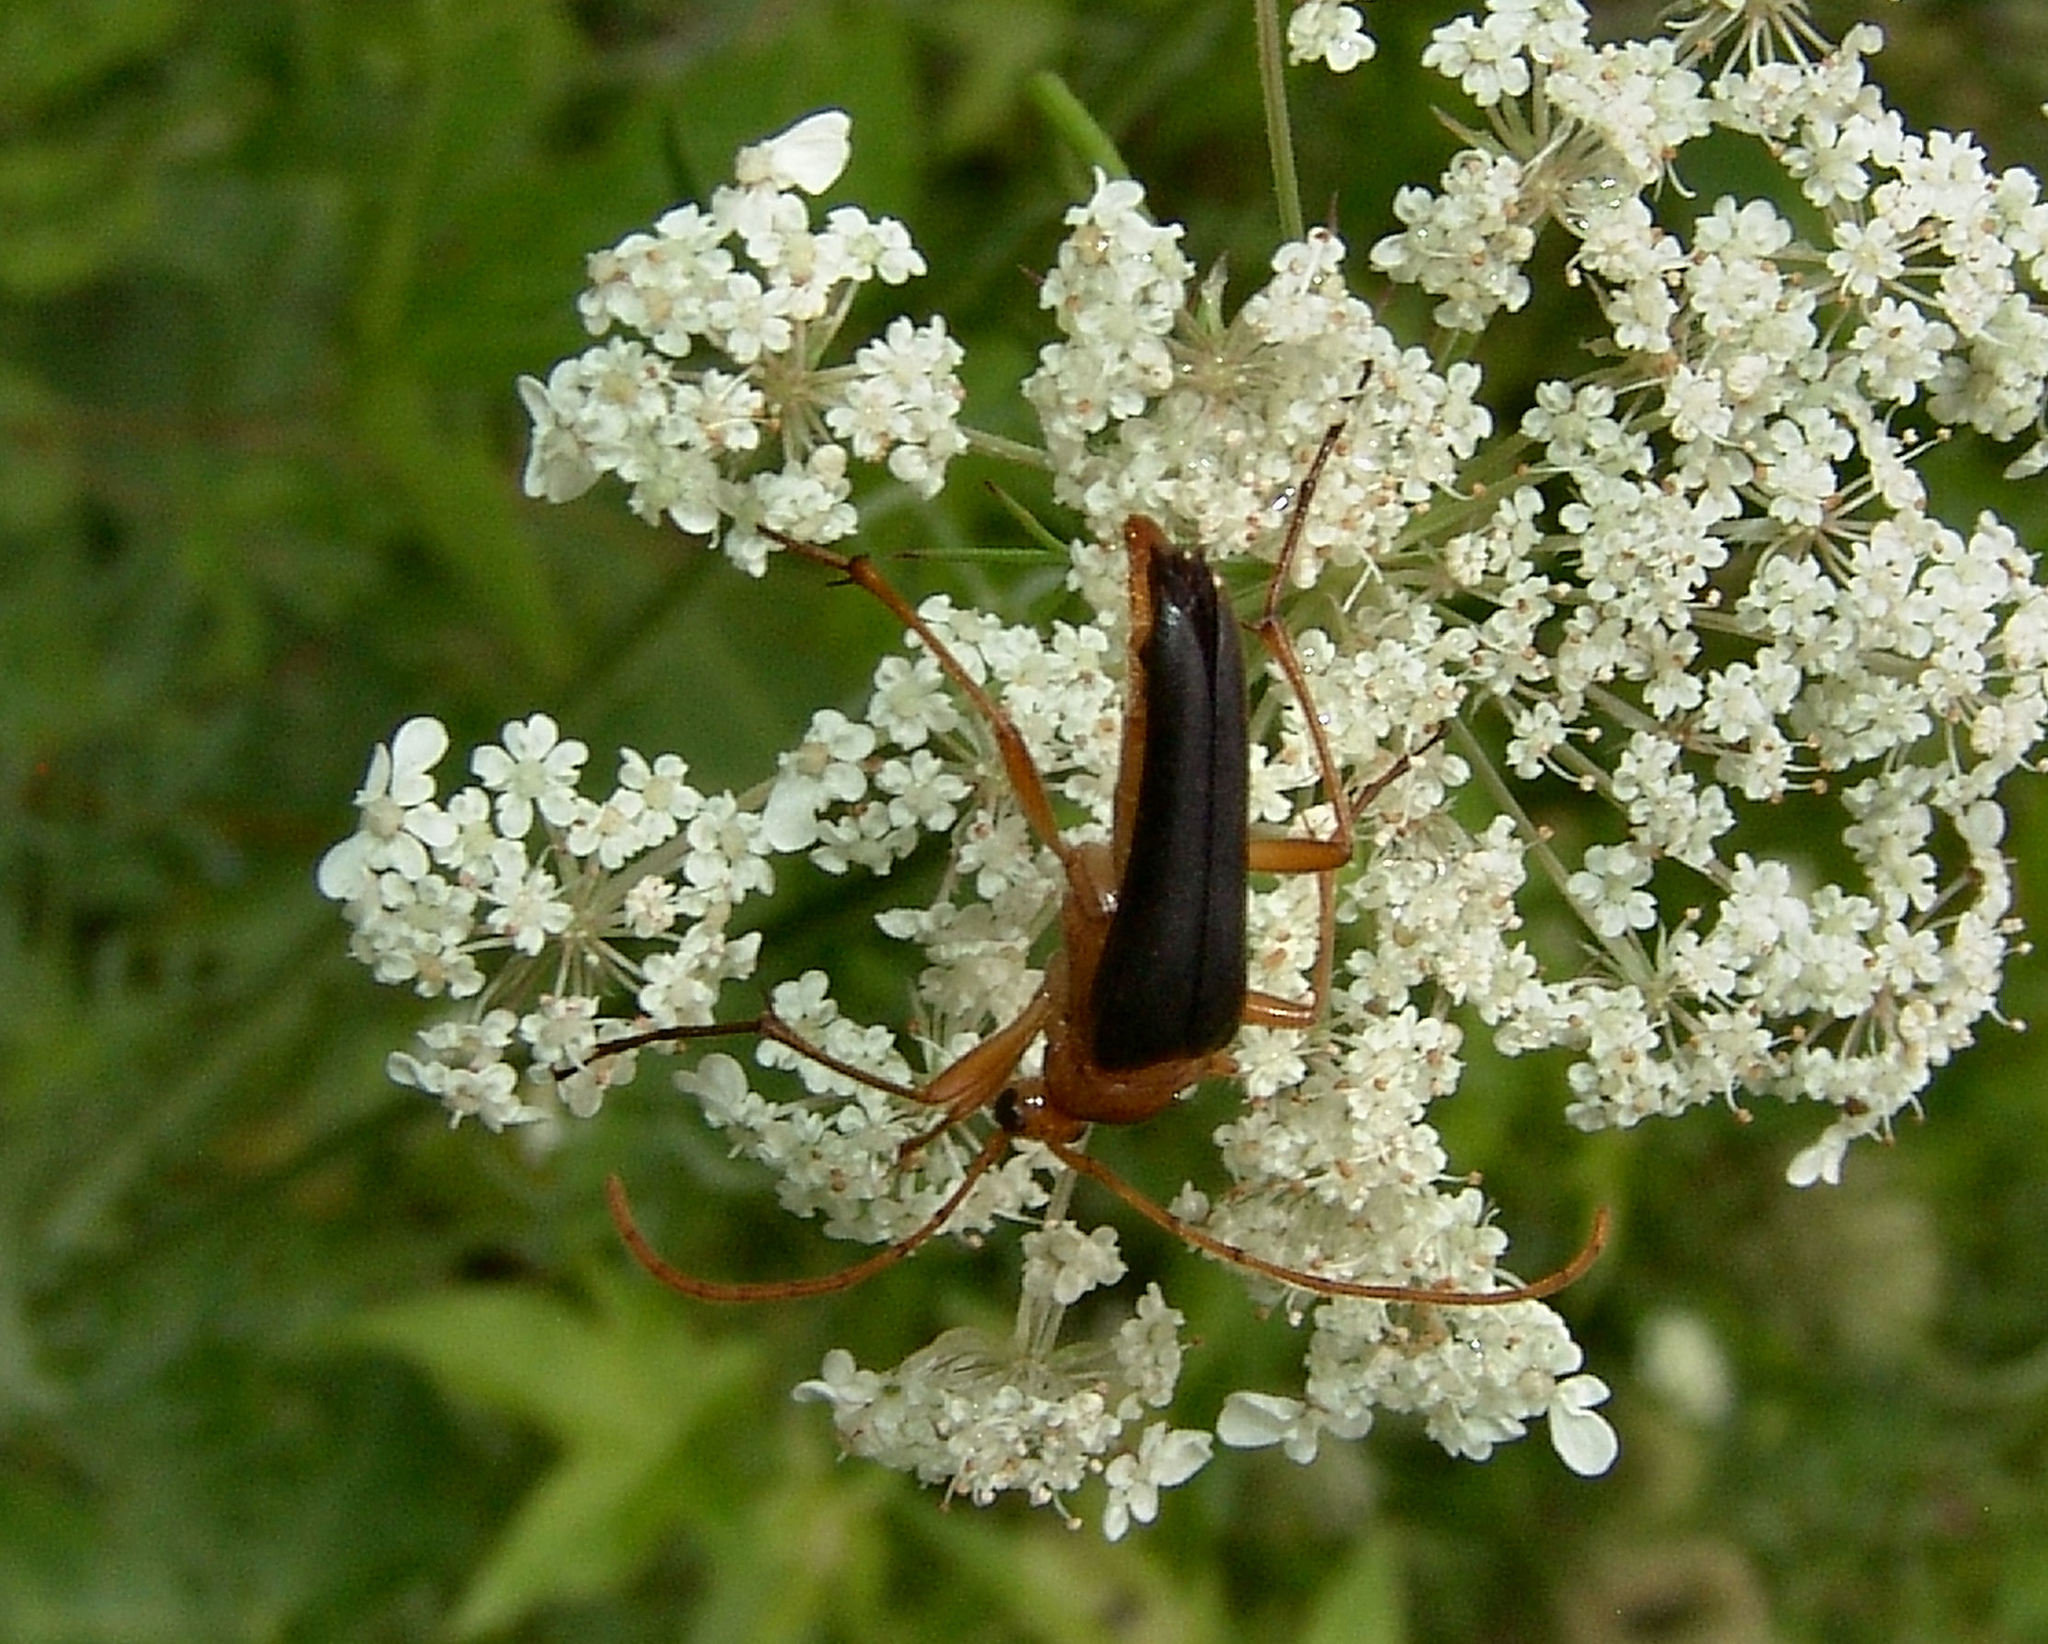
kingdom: Animalia
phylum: Arthropoda
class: Insecta
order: Coleoptera
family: Cerambycidae
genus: Strangalia
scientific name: Strangalia bicolor
